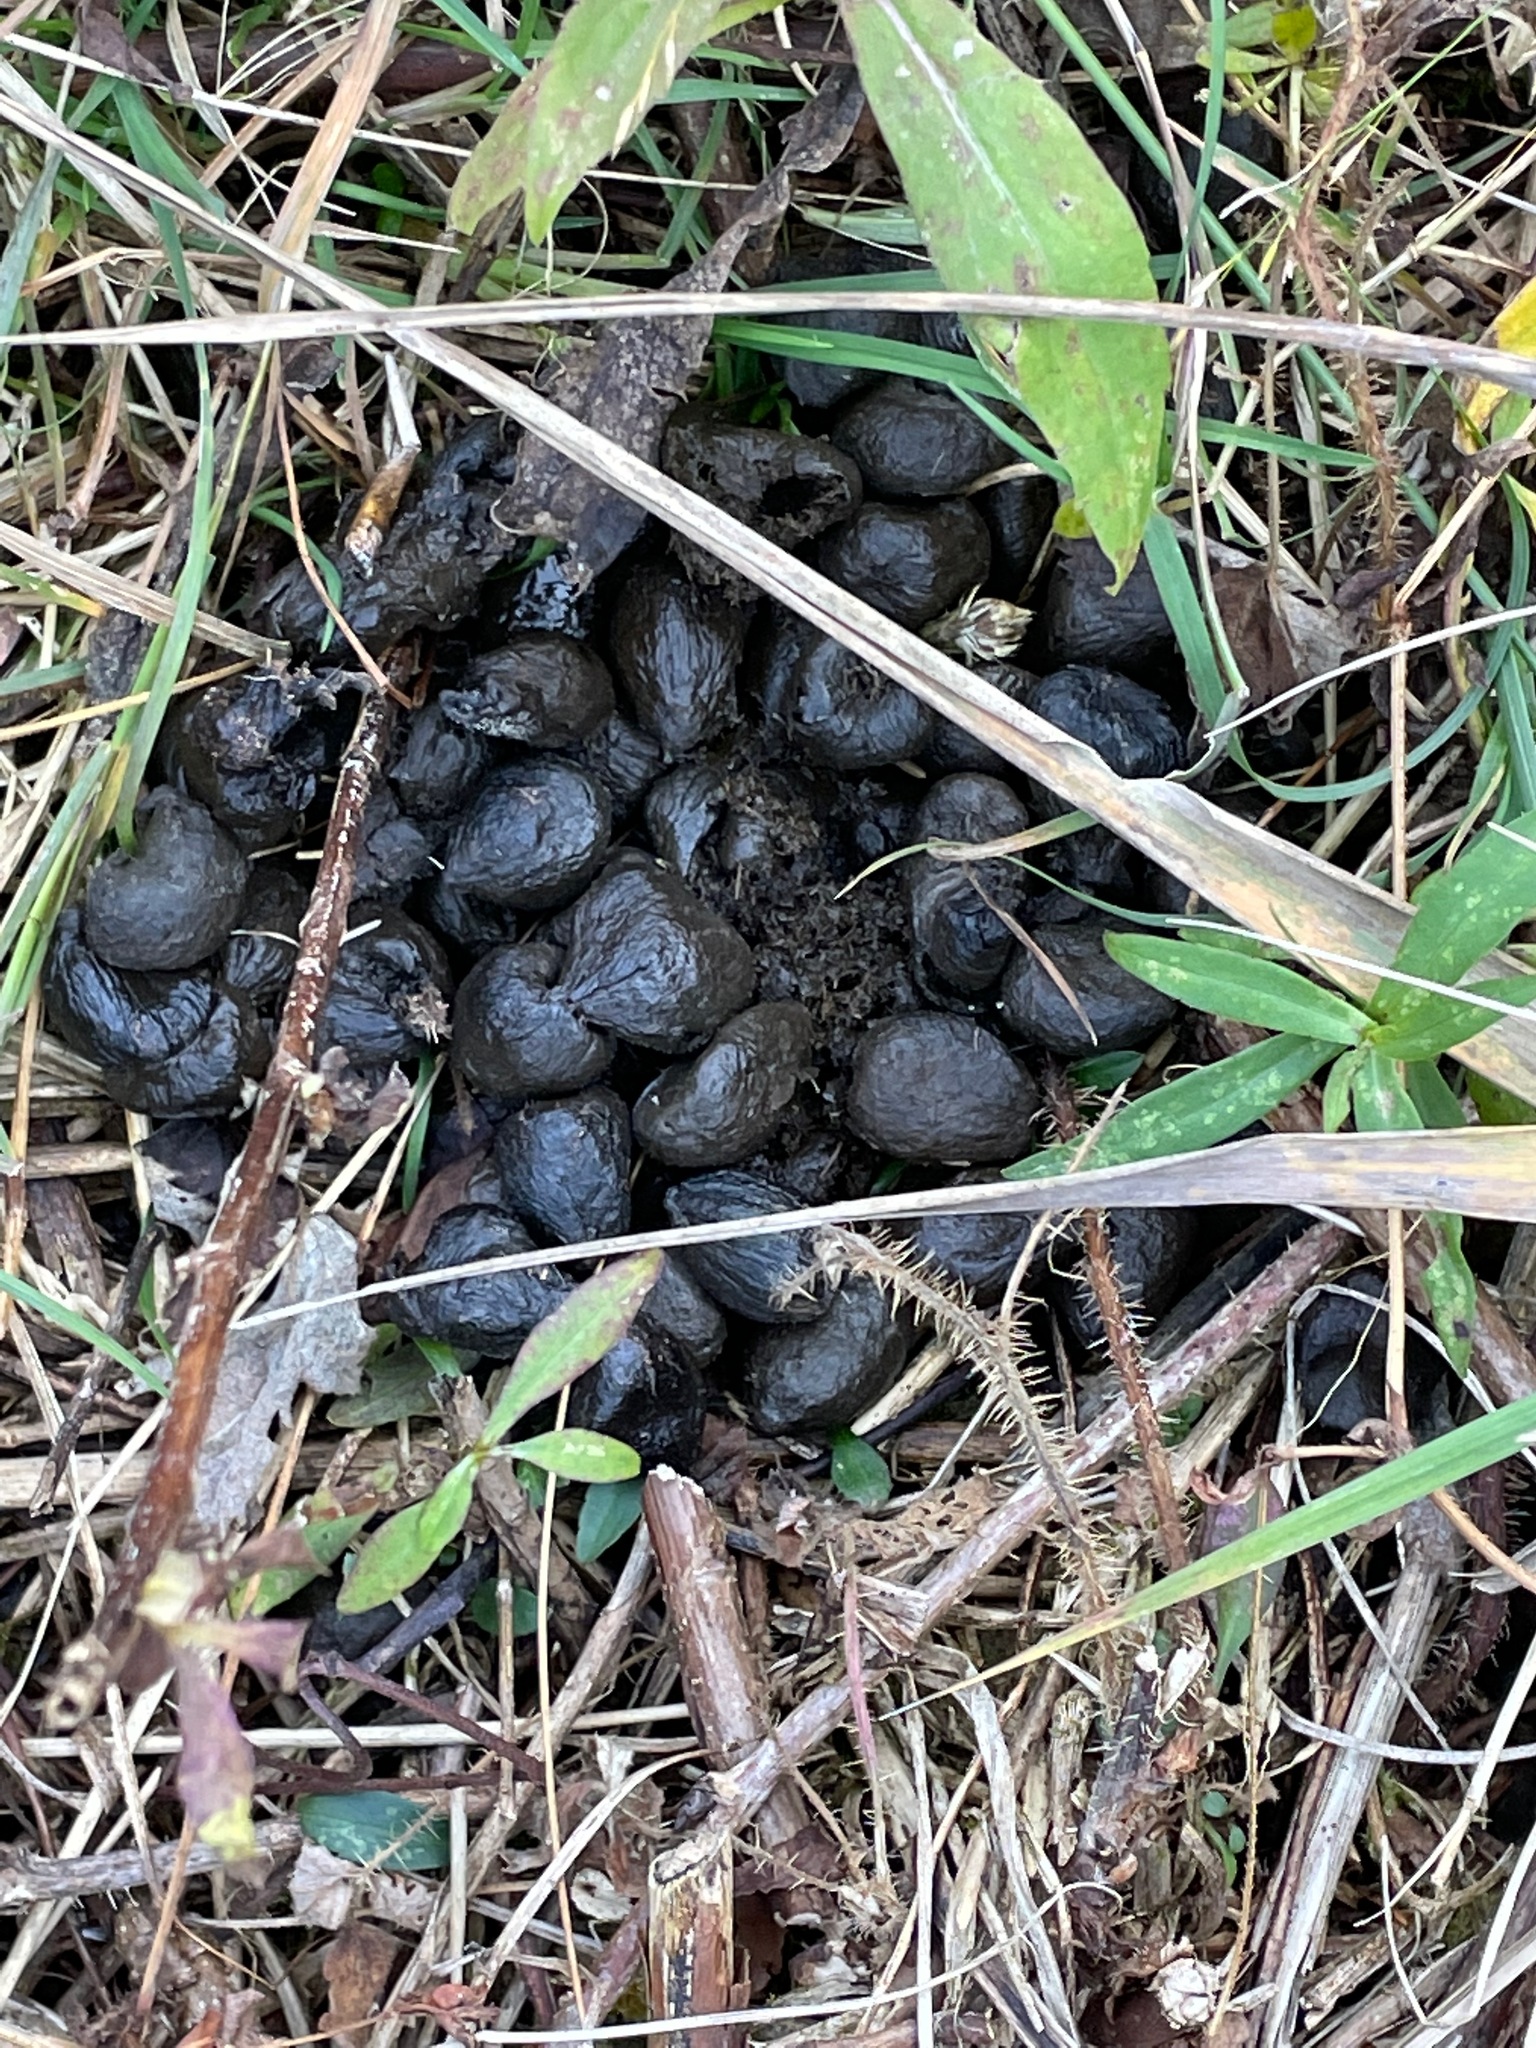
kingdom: Animalia
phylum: Chordata
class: Mammalia
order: Artiodactyla
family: Cervidae
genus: Odocoileus
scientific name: Odocoileus virginianus
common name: White-tailed deer
